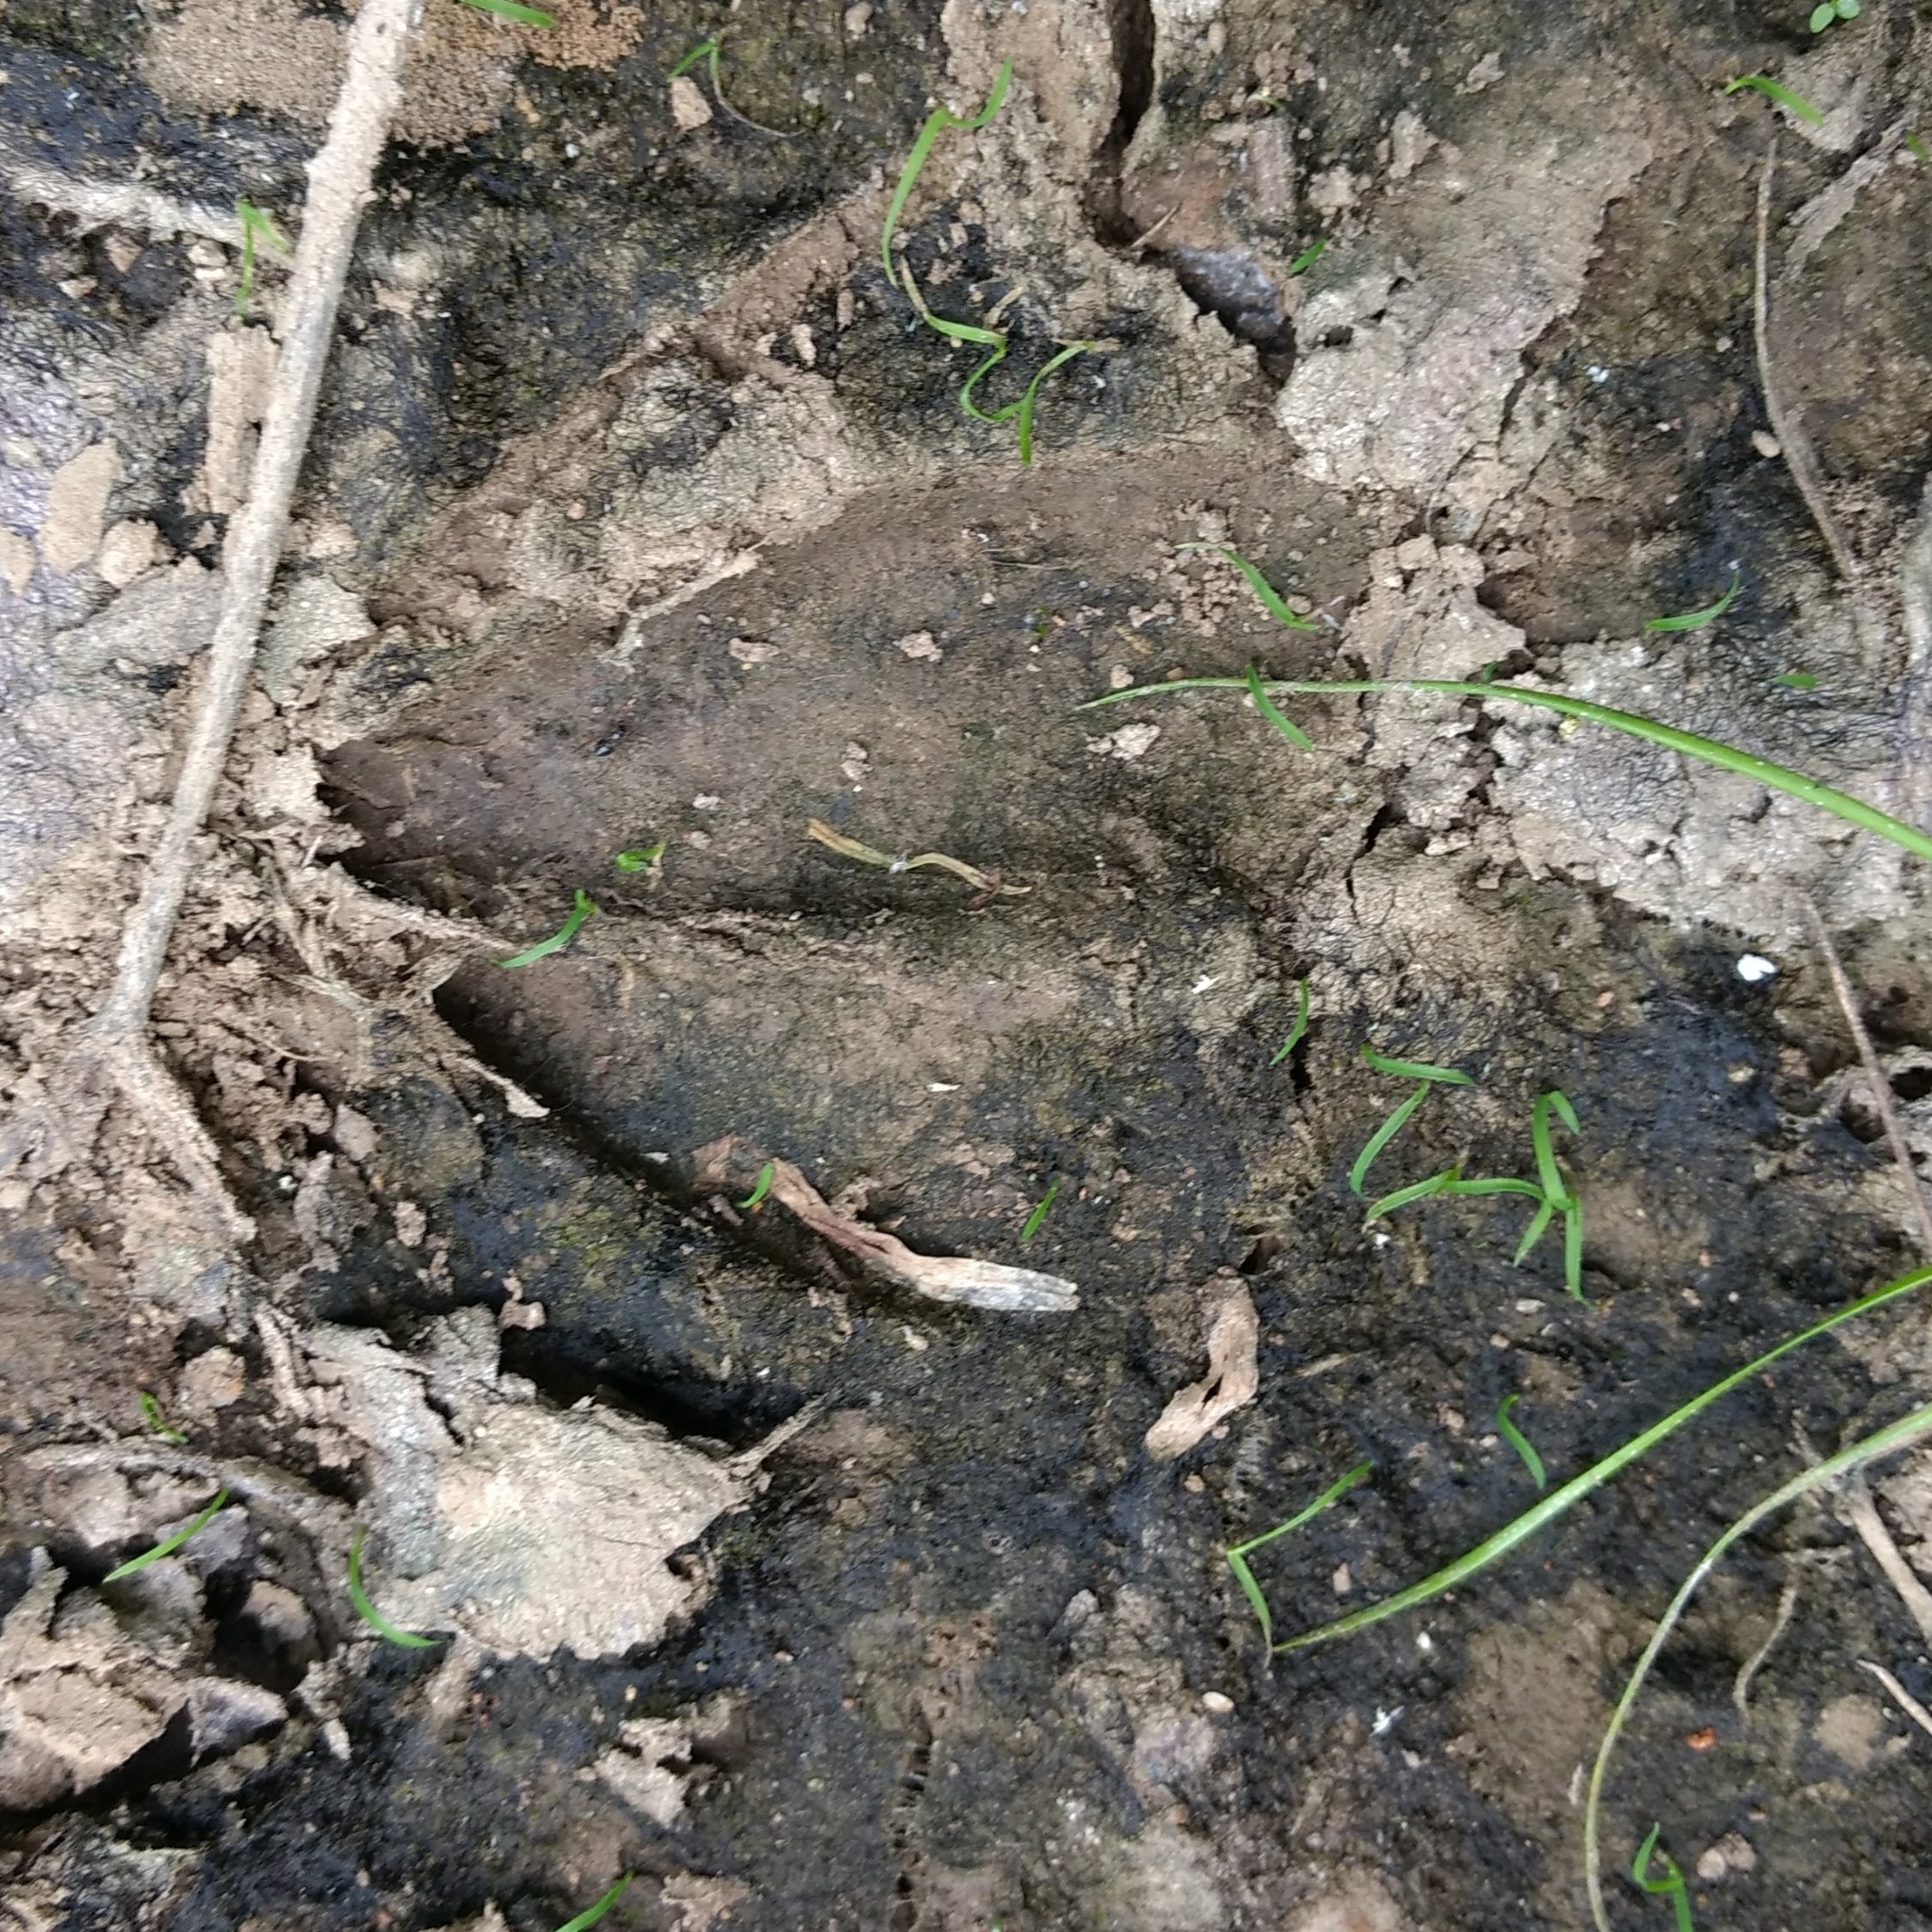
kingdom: Animalia
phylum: Chordata
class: Mammalia
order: Artiodactyla
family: Cervidae
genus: Odocoileus
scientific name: Odocoileus virginianus
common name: White-tailed deer
